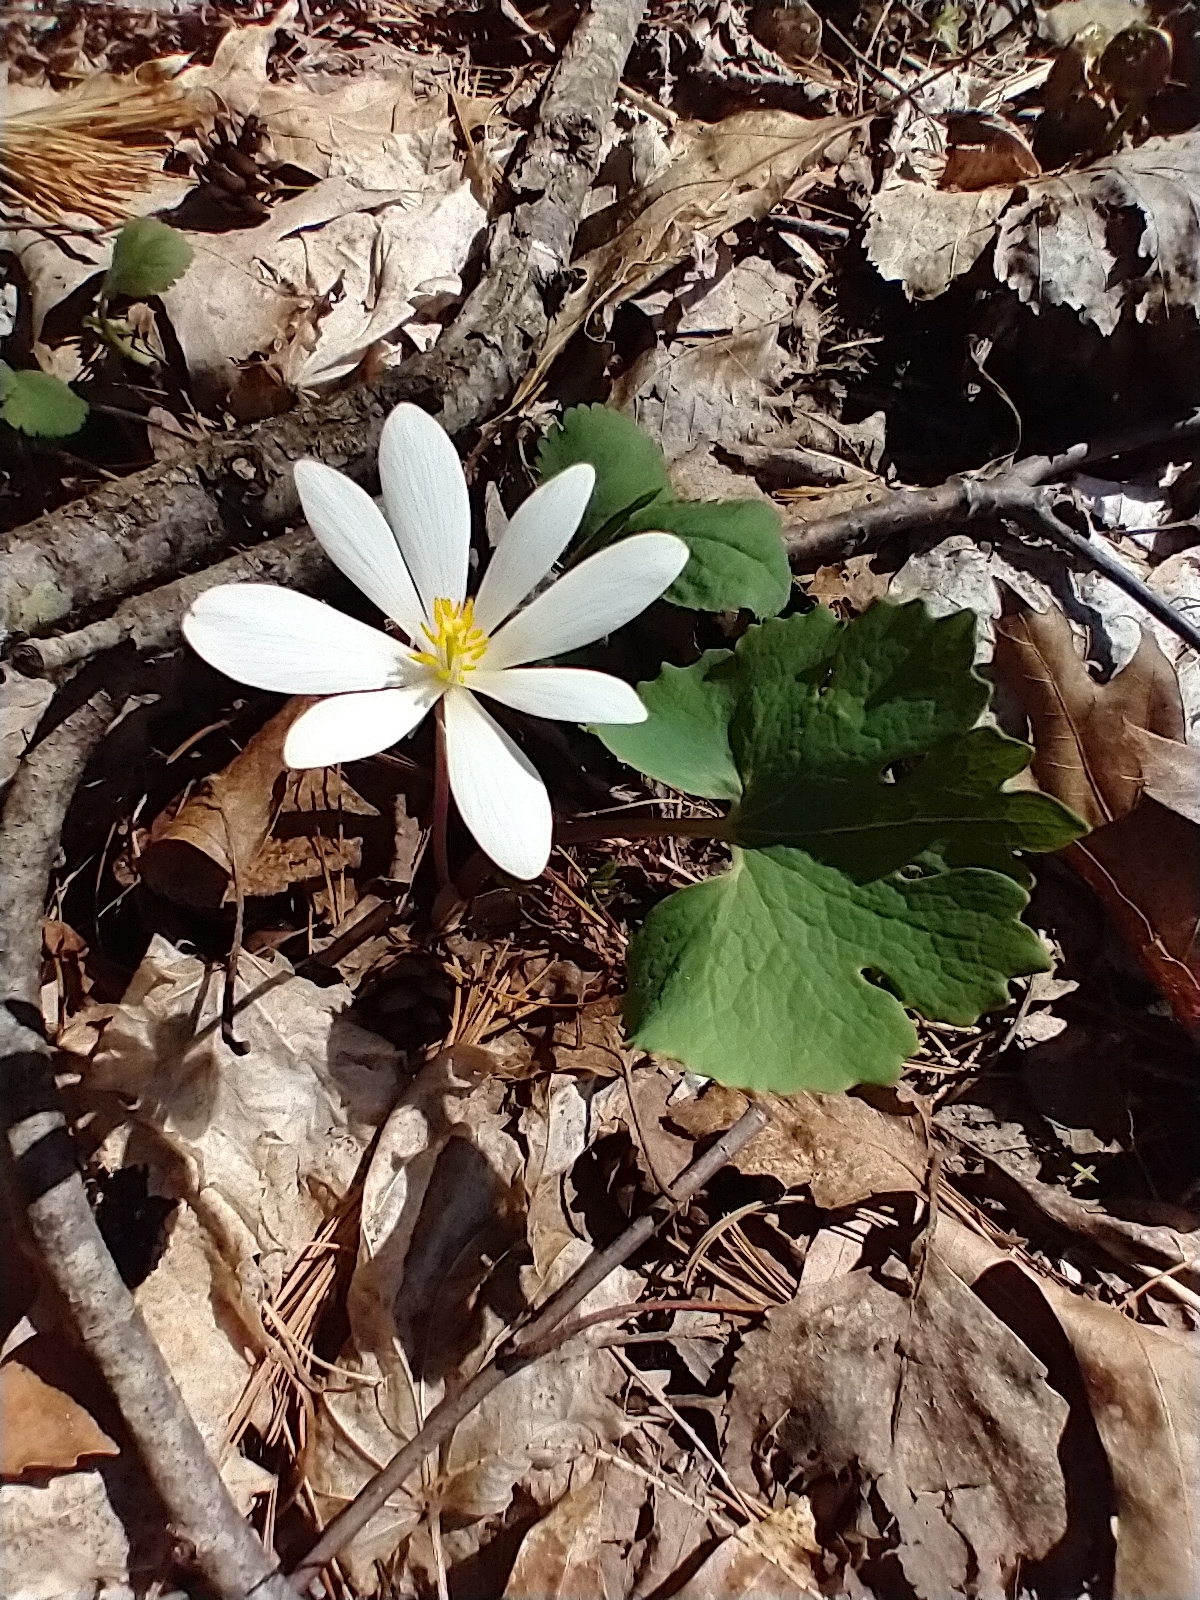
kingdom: Plantae
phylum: Tracheophyta
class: Magnoliopsida
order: Ranunculales
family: Papaveraceae
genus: Sanguinaria
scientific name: Sanguinaria canadensis
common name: Bloodroot
